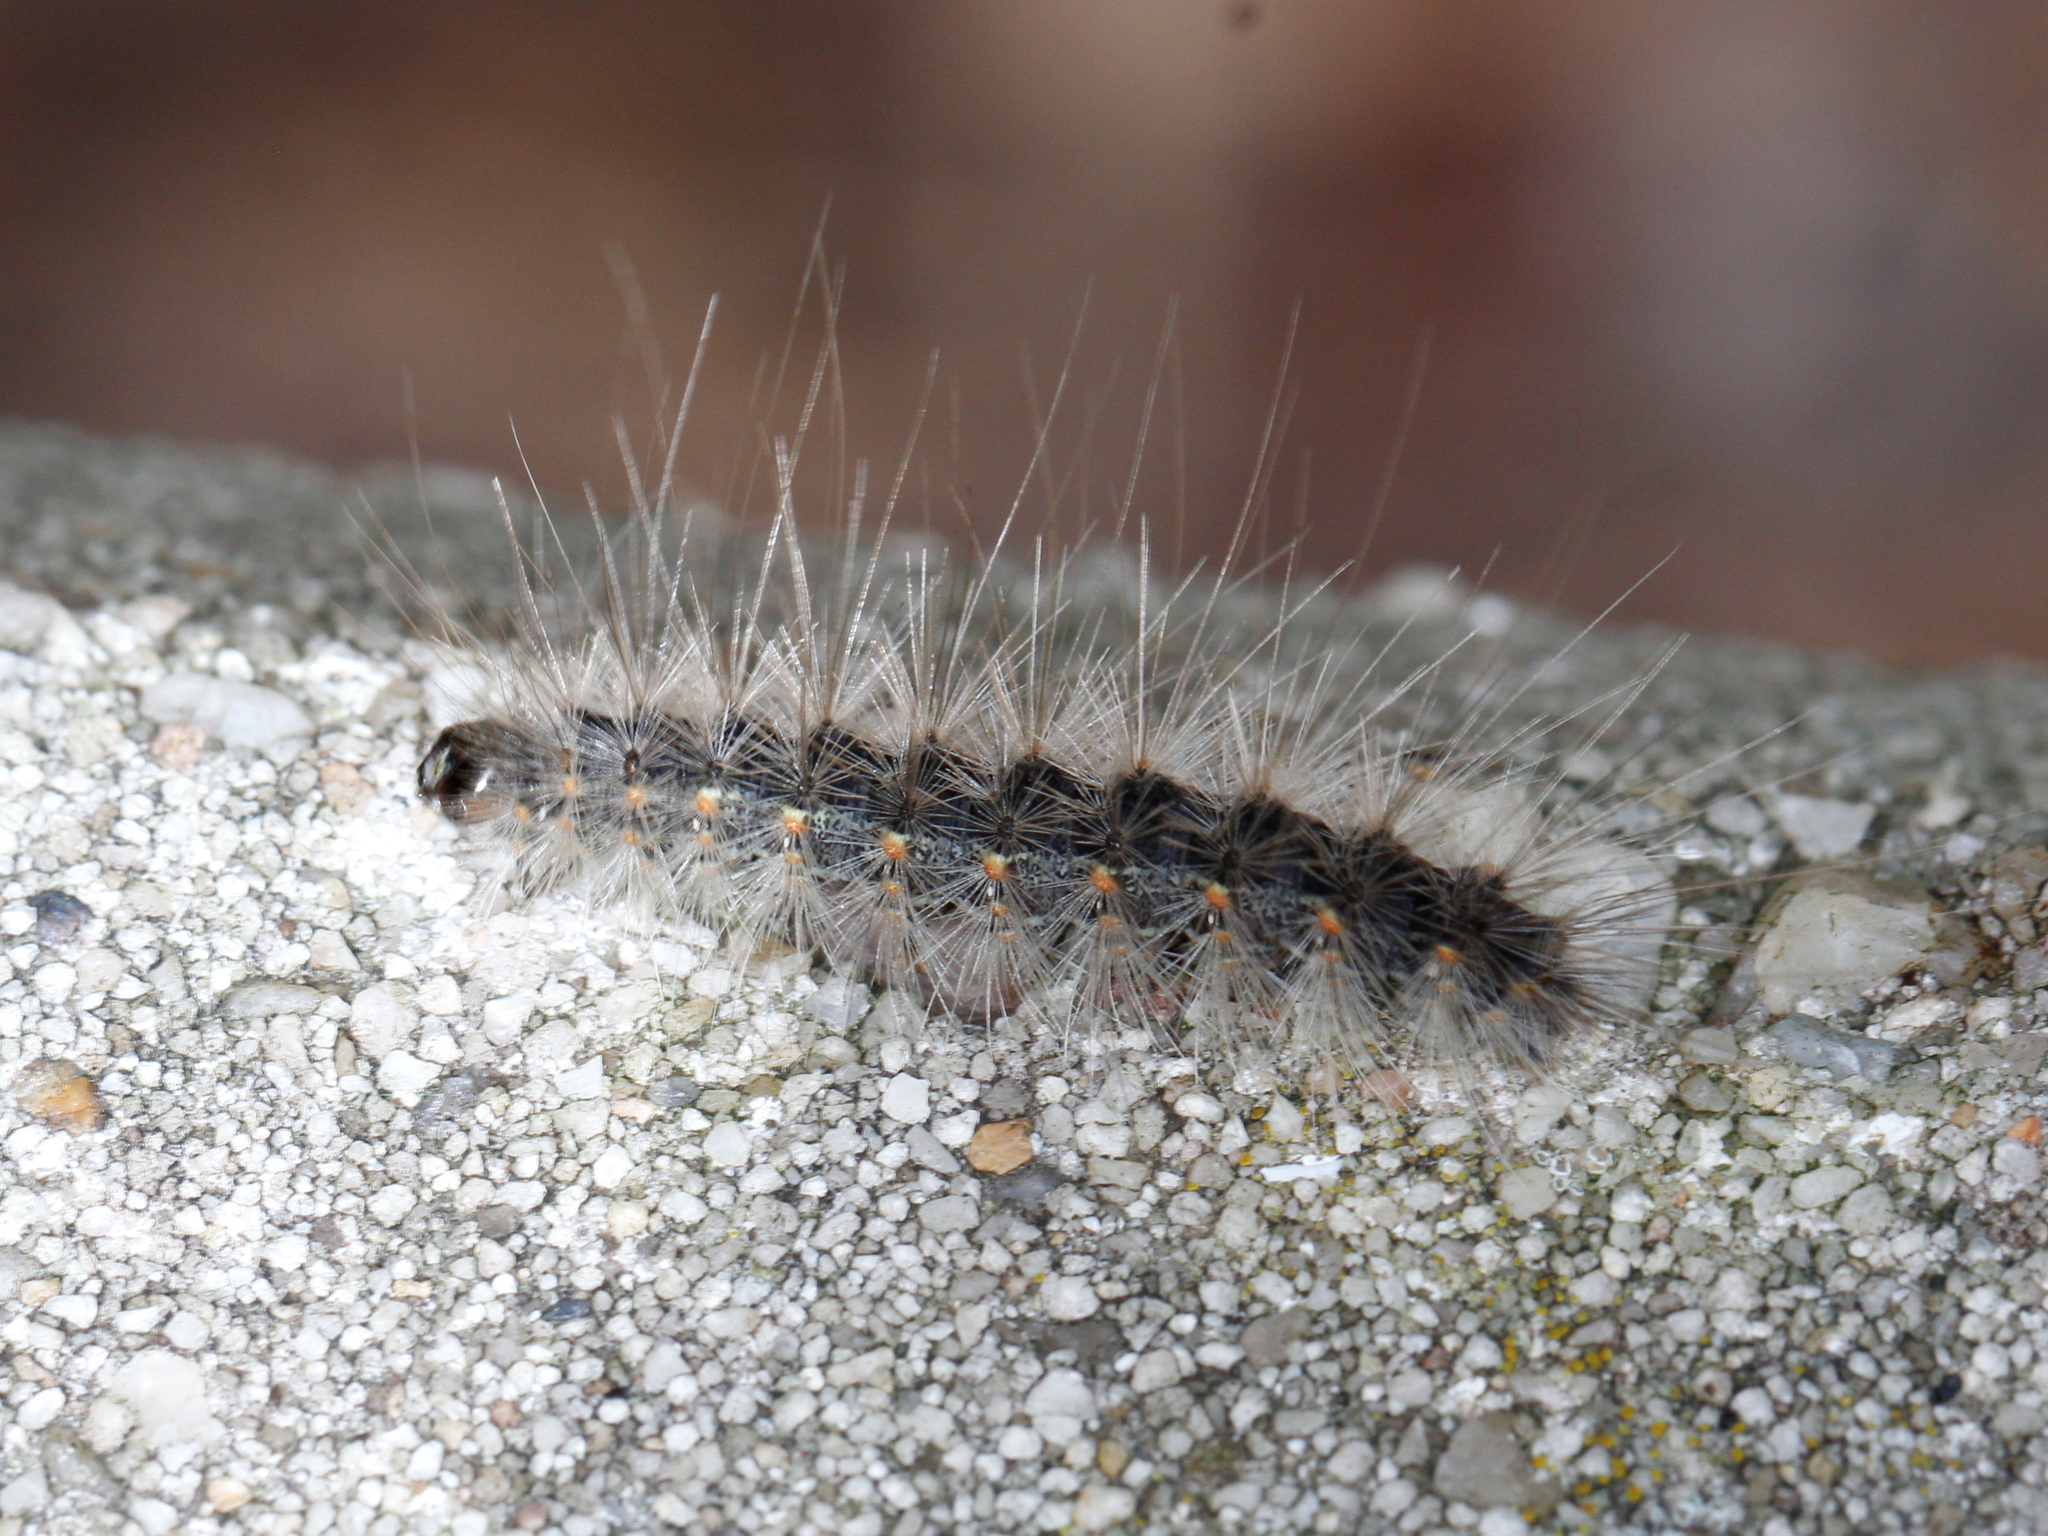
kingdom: Animalia
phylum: Arthropoda
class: Insecta
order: Lepidoptera
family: Erebidae
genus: Hyphantria
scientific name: Hyphantria cunea
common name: American white moth
